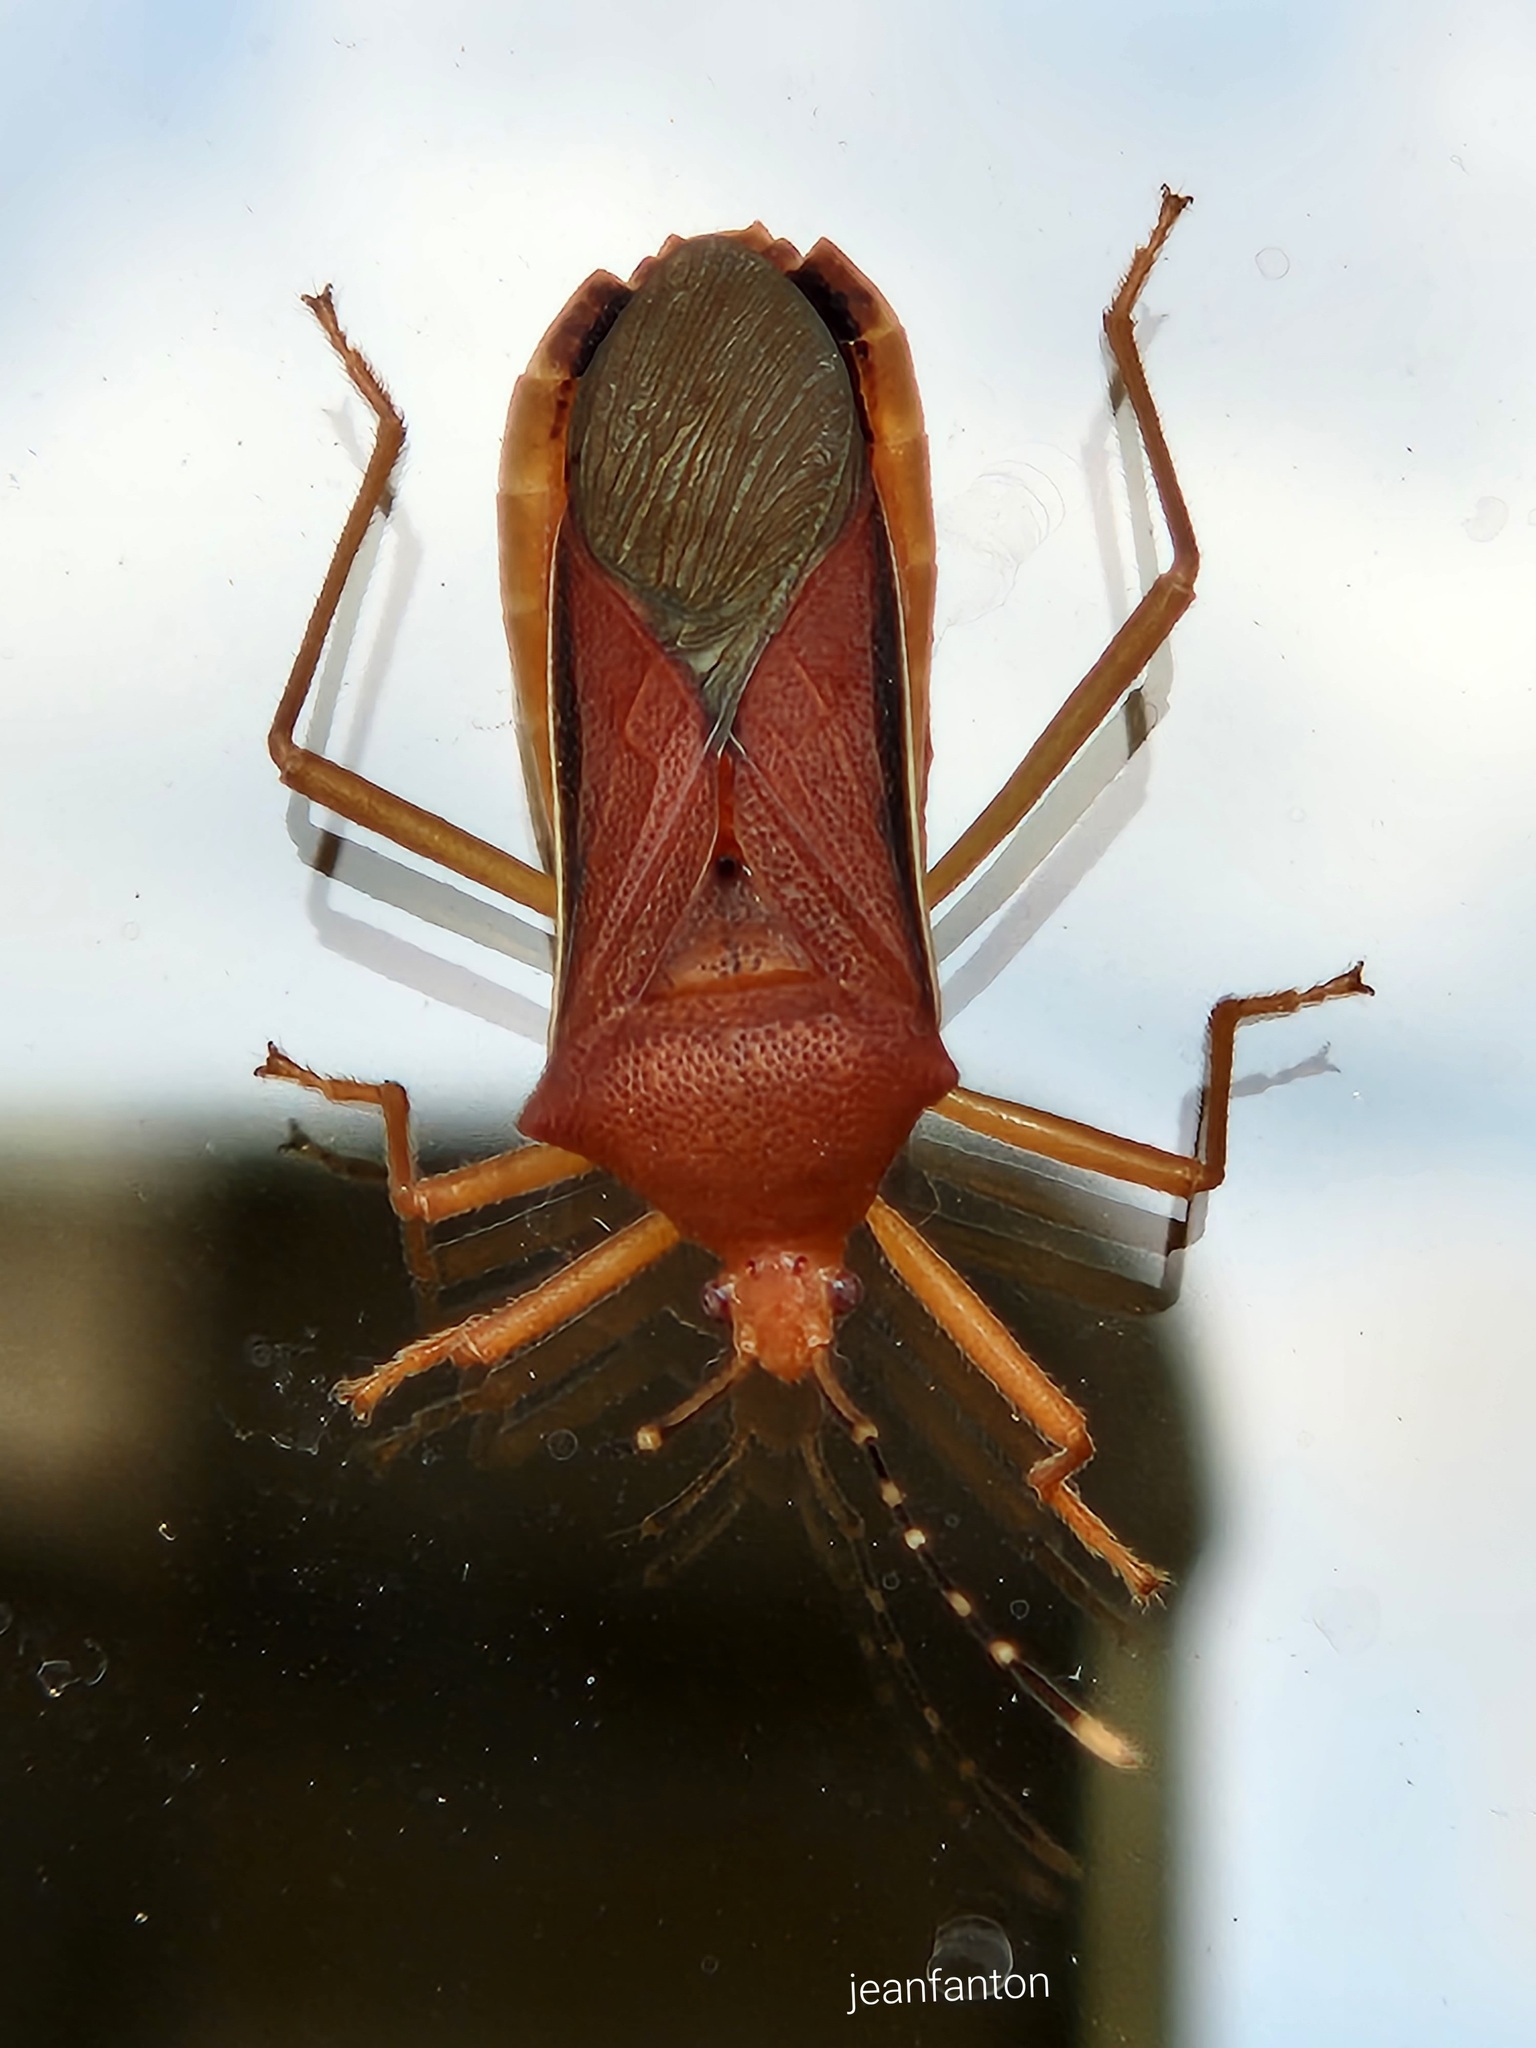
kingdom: Animalia
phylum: Arthropoda
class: Insecta
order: Hemiptera
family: Coreidae
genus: Anasa
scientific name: Anasa varicornis
